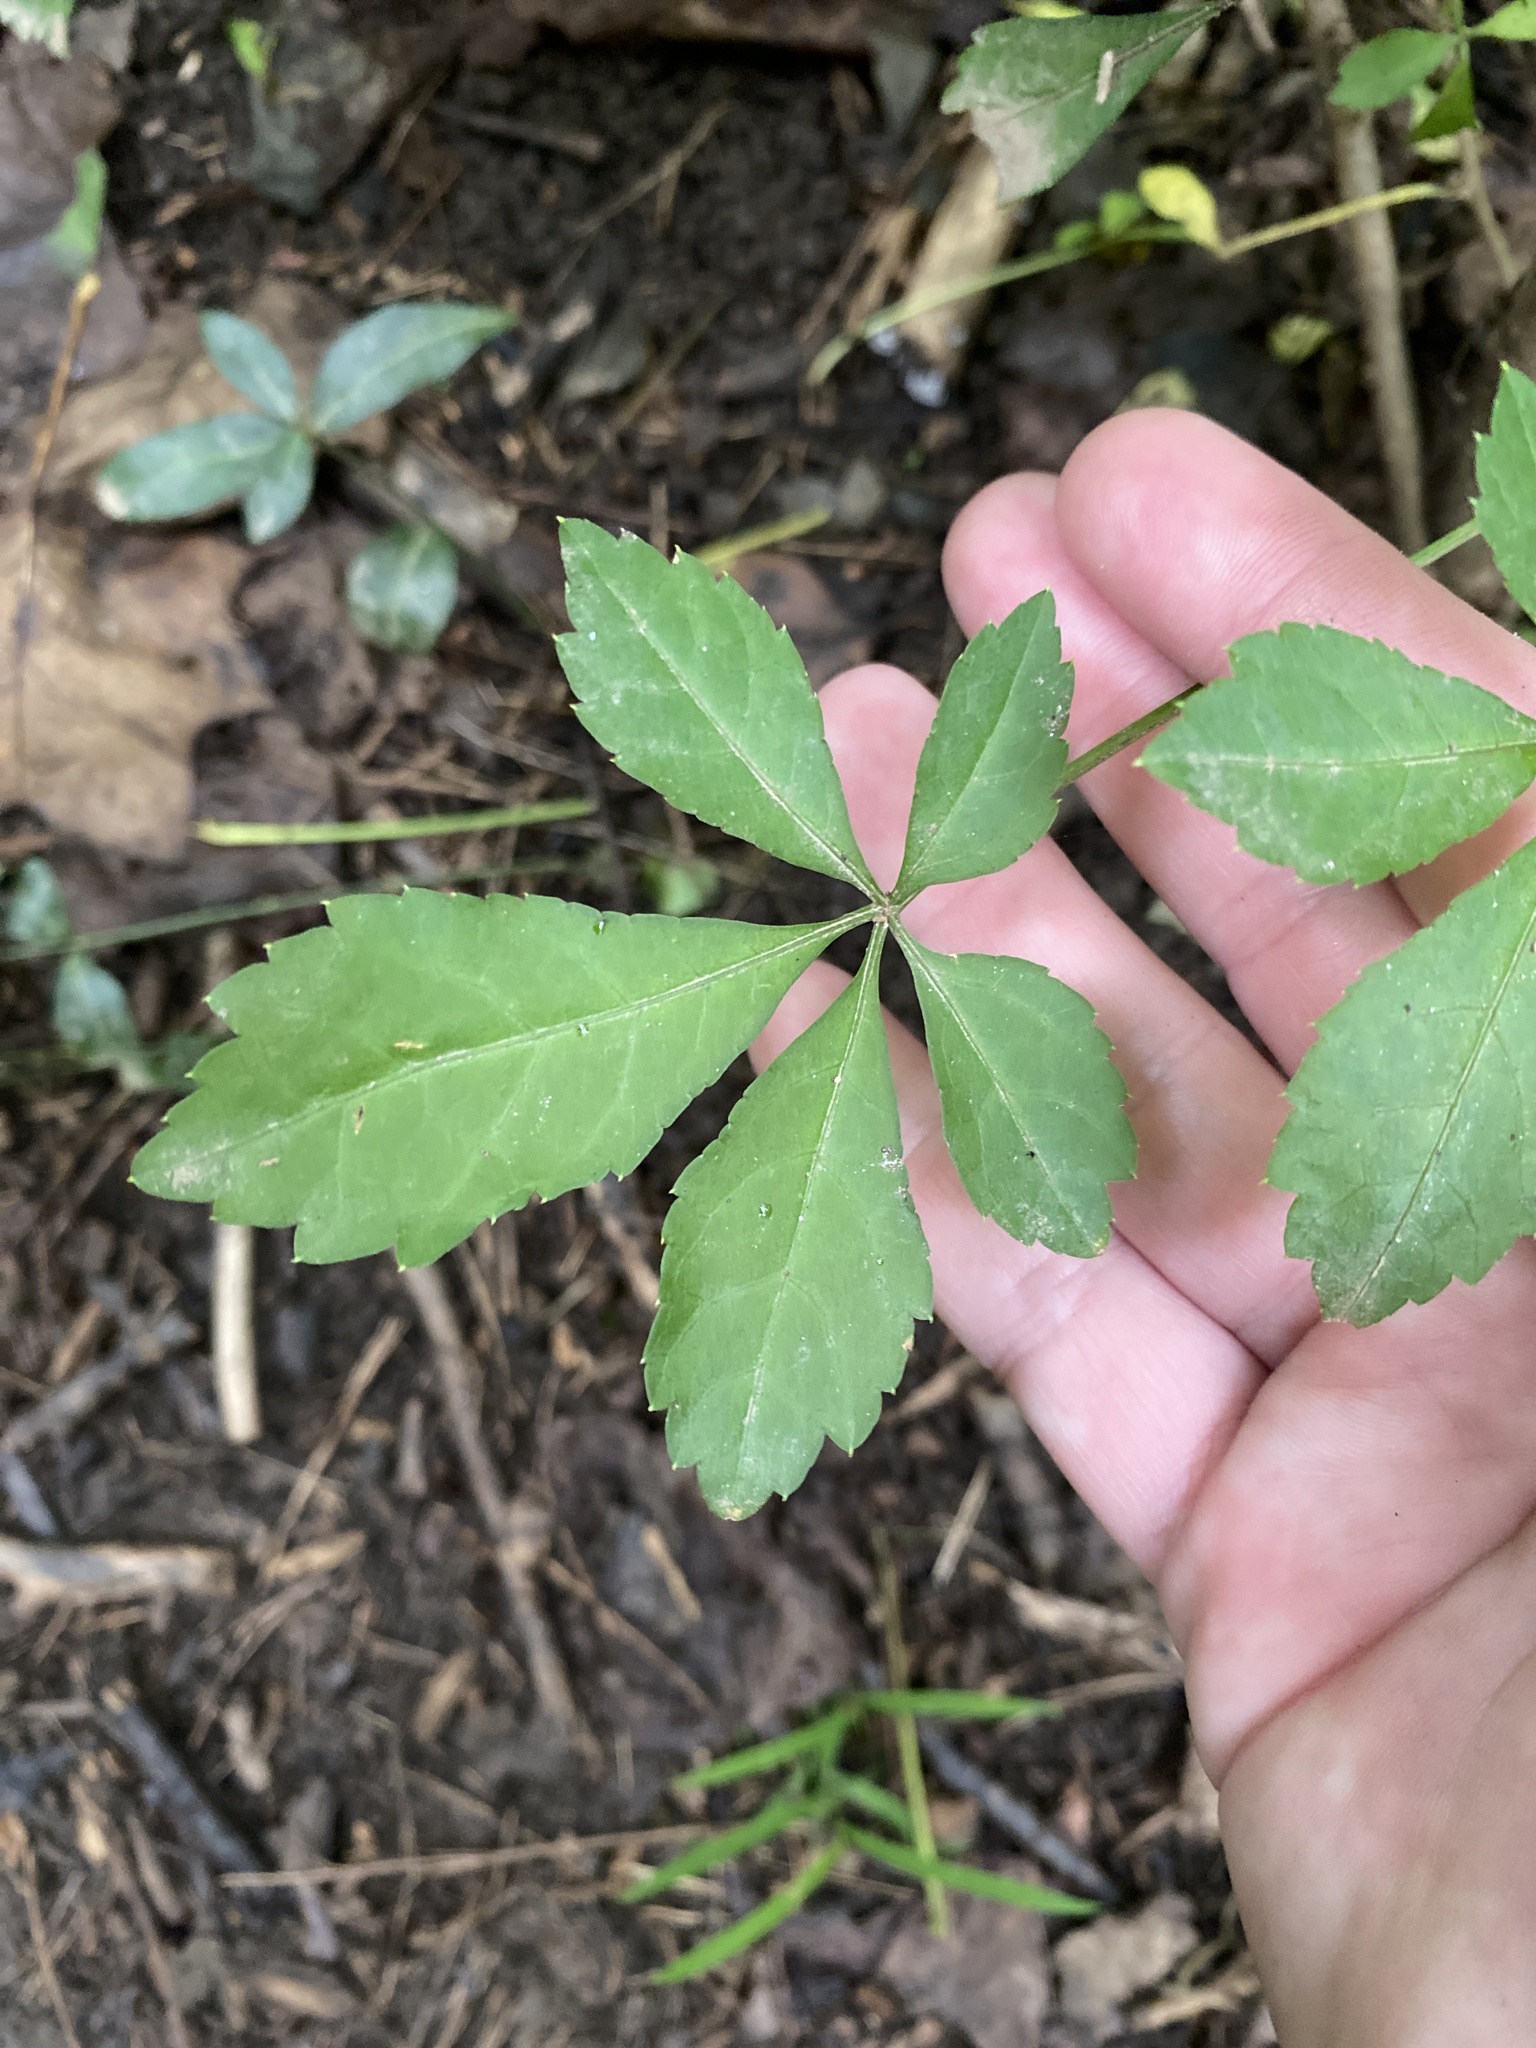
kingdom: Plantae
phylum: Tracheophyta
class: Magnoliopsida
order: Apiales
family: Araliaceae
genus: Eleutherococcus
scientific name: Eleutherococcus sieboldianus
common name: Ginseng
